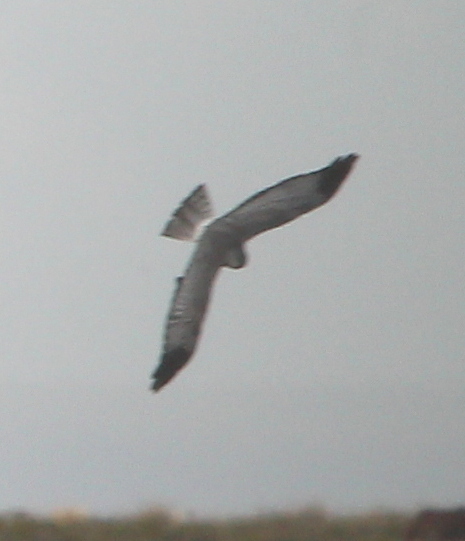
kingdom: Animalia
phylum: Chordata
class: Aves
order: Accipitriformes
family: Accipitridae
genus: Circus
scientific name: Circus cinereus
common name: Cinereous harrier
